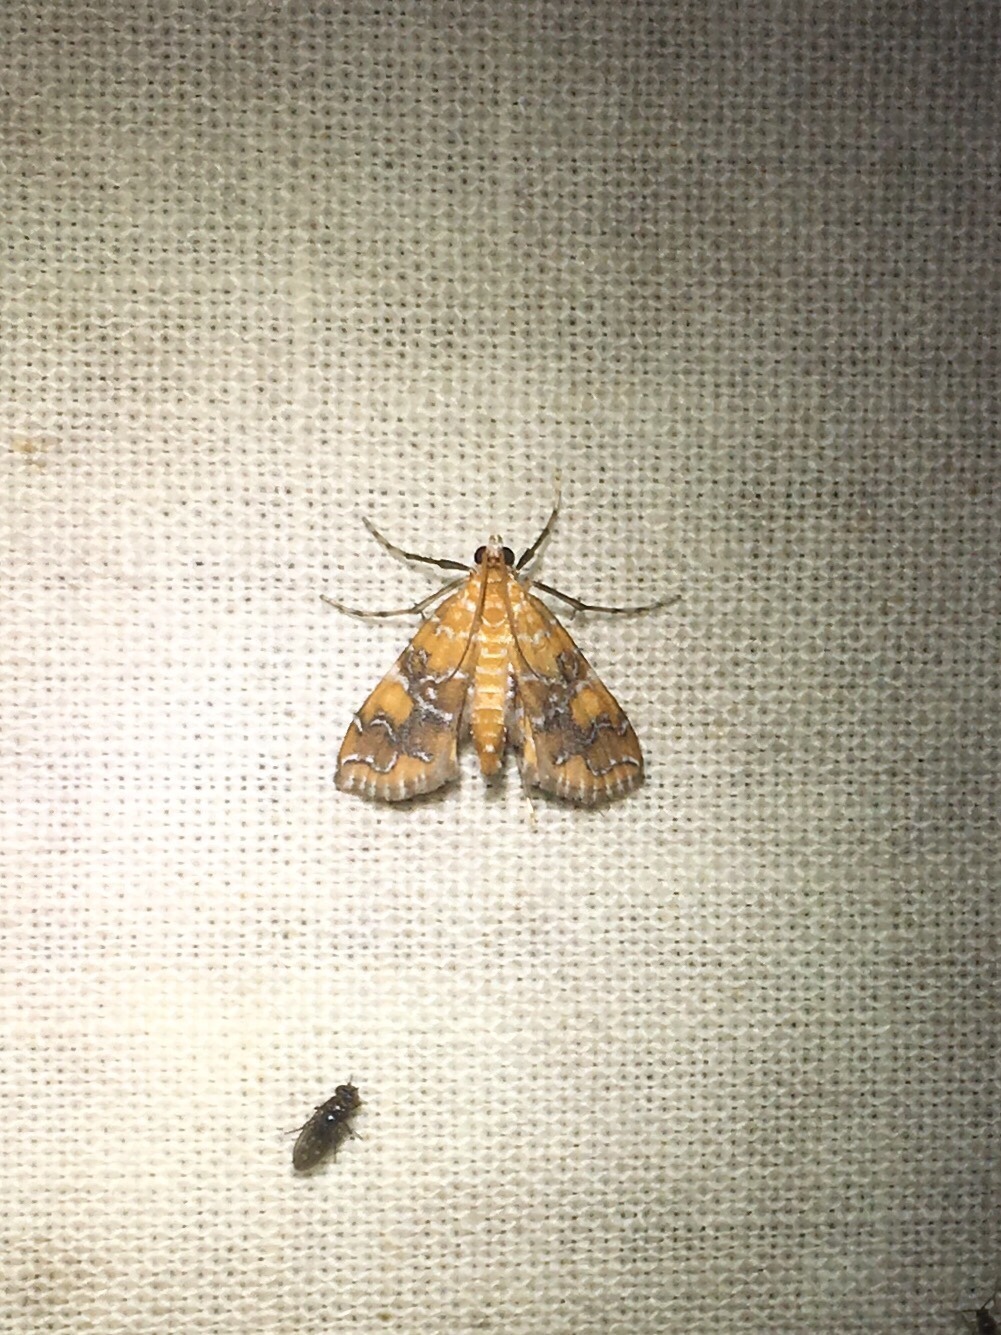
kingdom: Animalia
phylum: Arthropoda
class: Insecta
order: Lepidoptera
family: Crambidae
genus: Elophila
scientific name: Elophila nebulosalis
